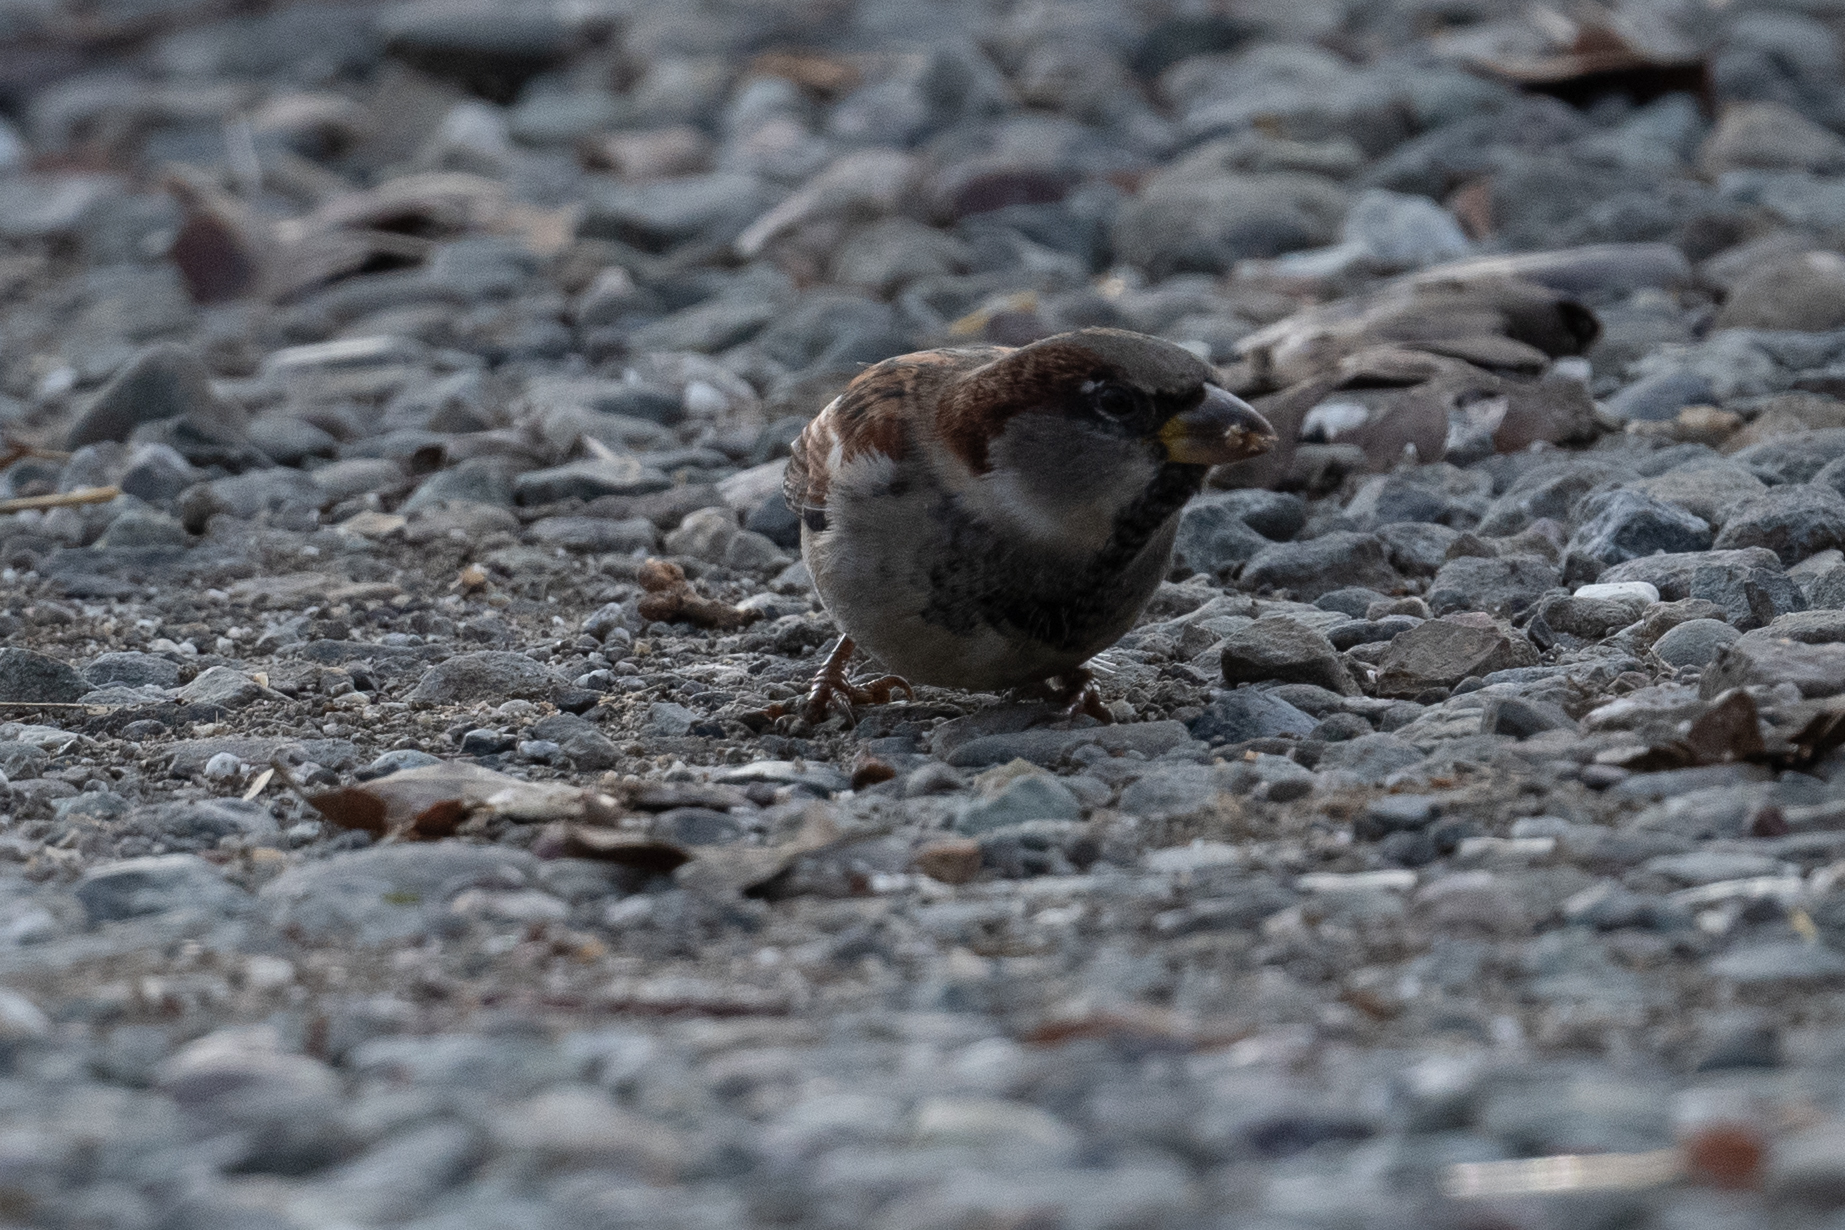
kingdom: Animalia
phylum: Chordata
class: Aves
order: Passeriformes
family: Passeridae
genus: Passer
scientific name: Passer domesticus
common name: House sparrow
